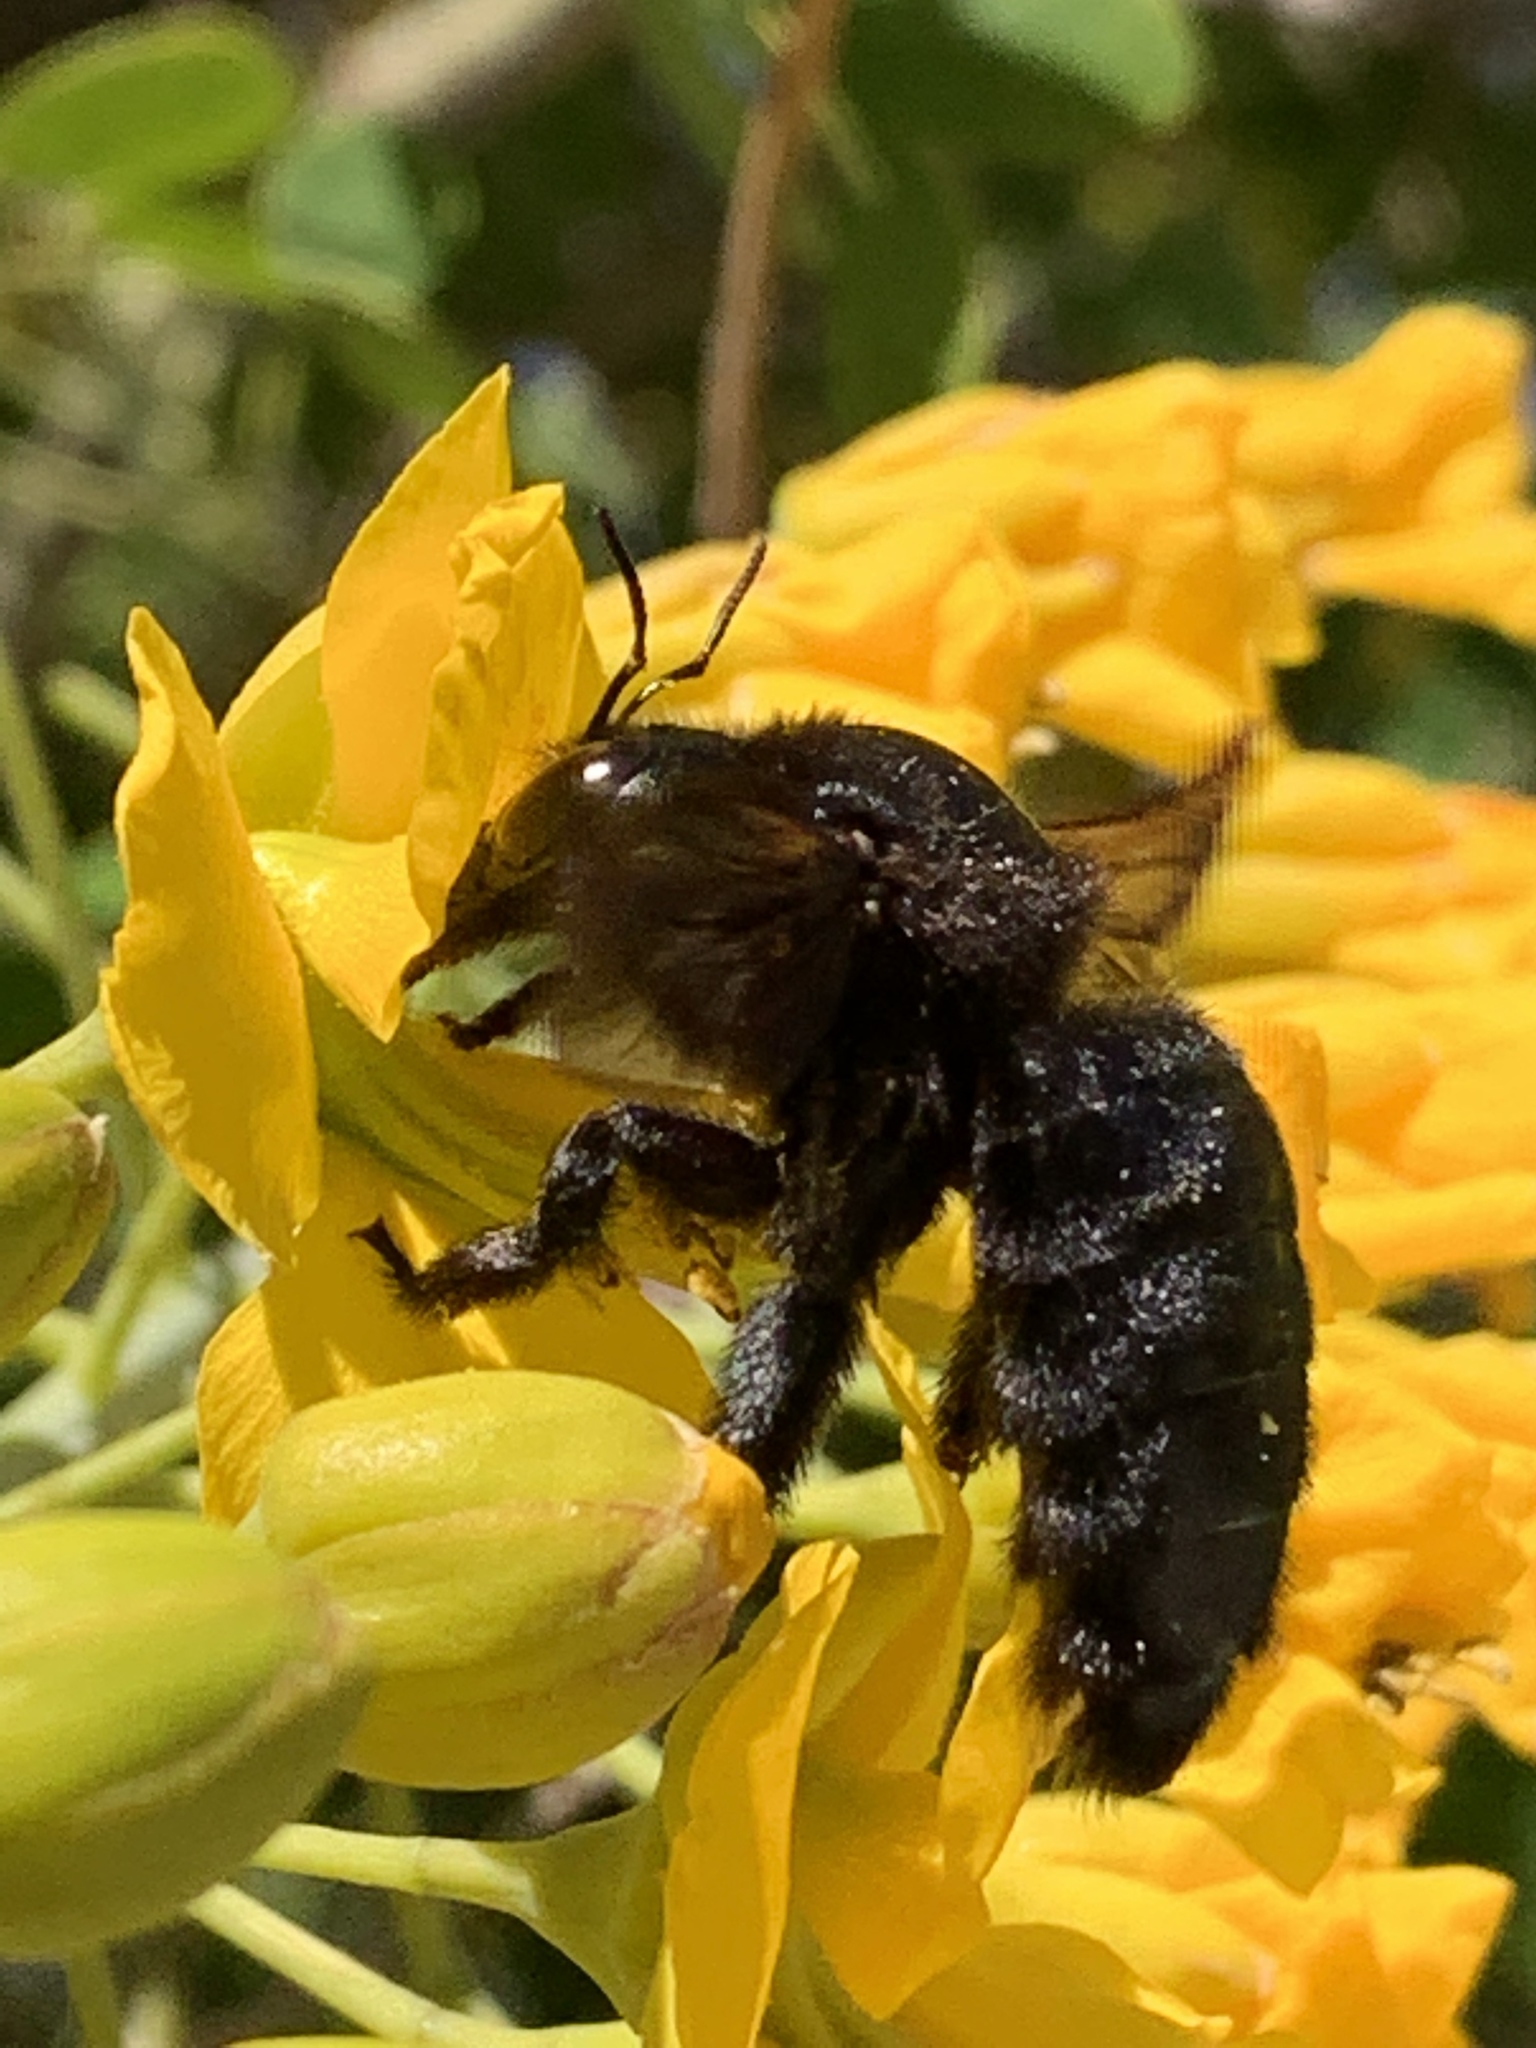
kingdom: Animalia
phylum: Arthropoda
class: Insecta
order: Hymenoptera
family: Apidae
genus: Xylocopa
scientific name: Xylocopa sonorina
